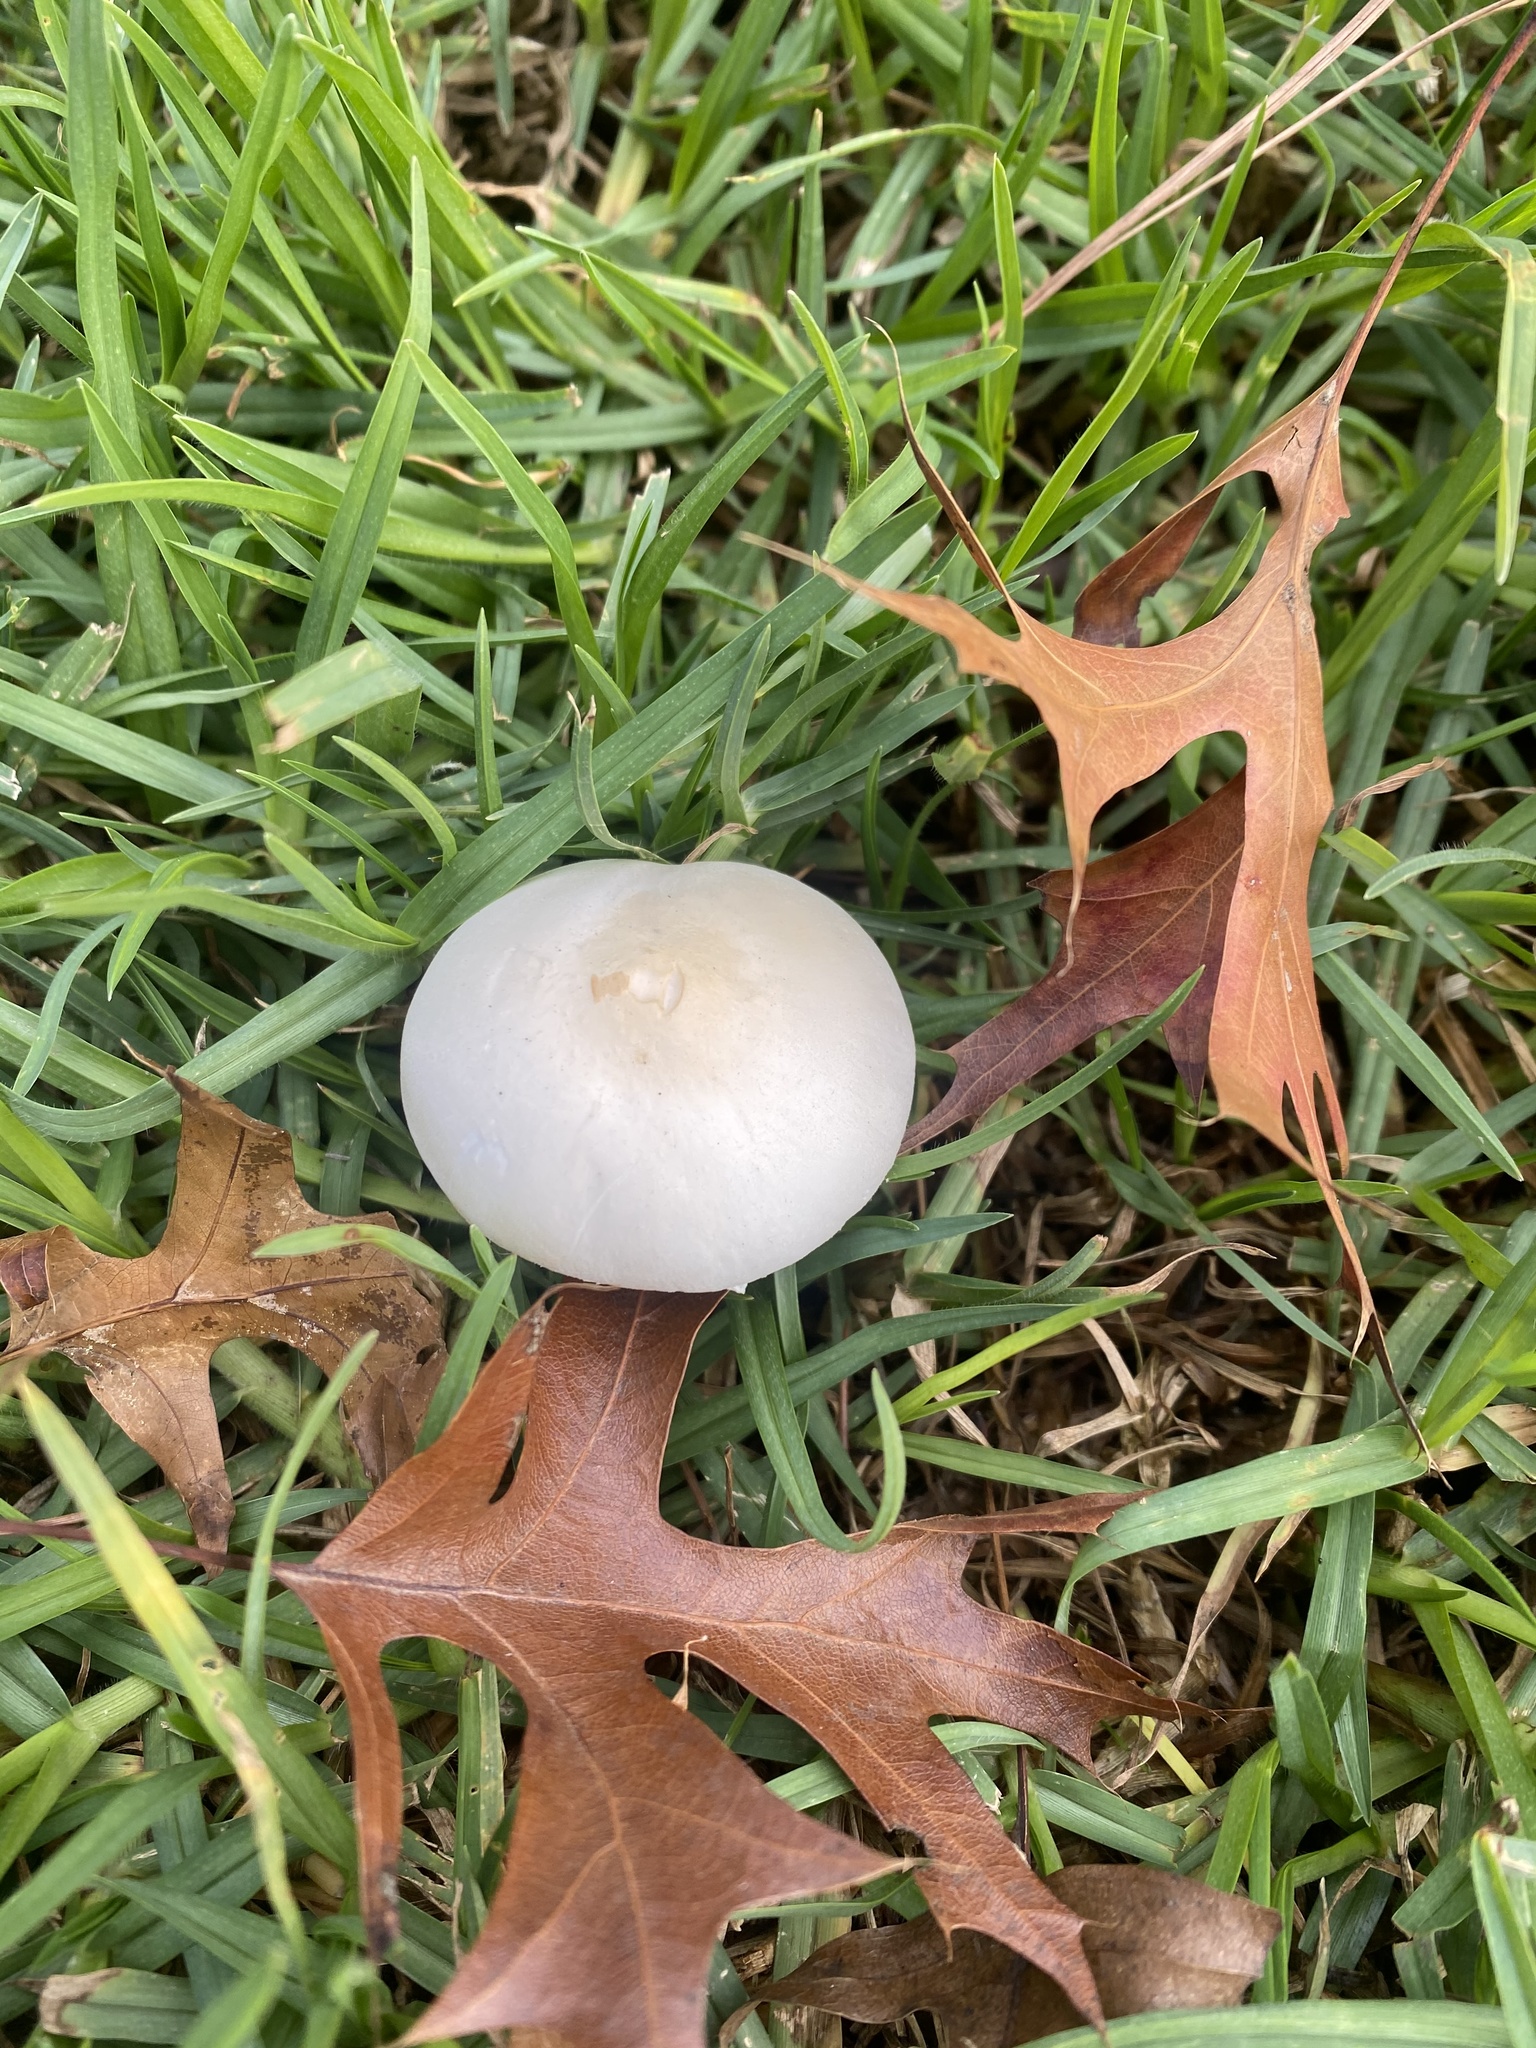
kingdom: Fungi
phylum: Basidiomycota
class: Agaricomycetes
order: Agaricales
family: Agaricaceae
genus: Leucoagaricus
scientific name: Leucoagaricus leucothites
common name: White dapperling
